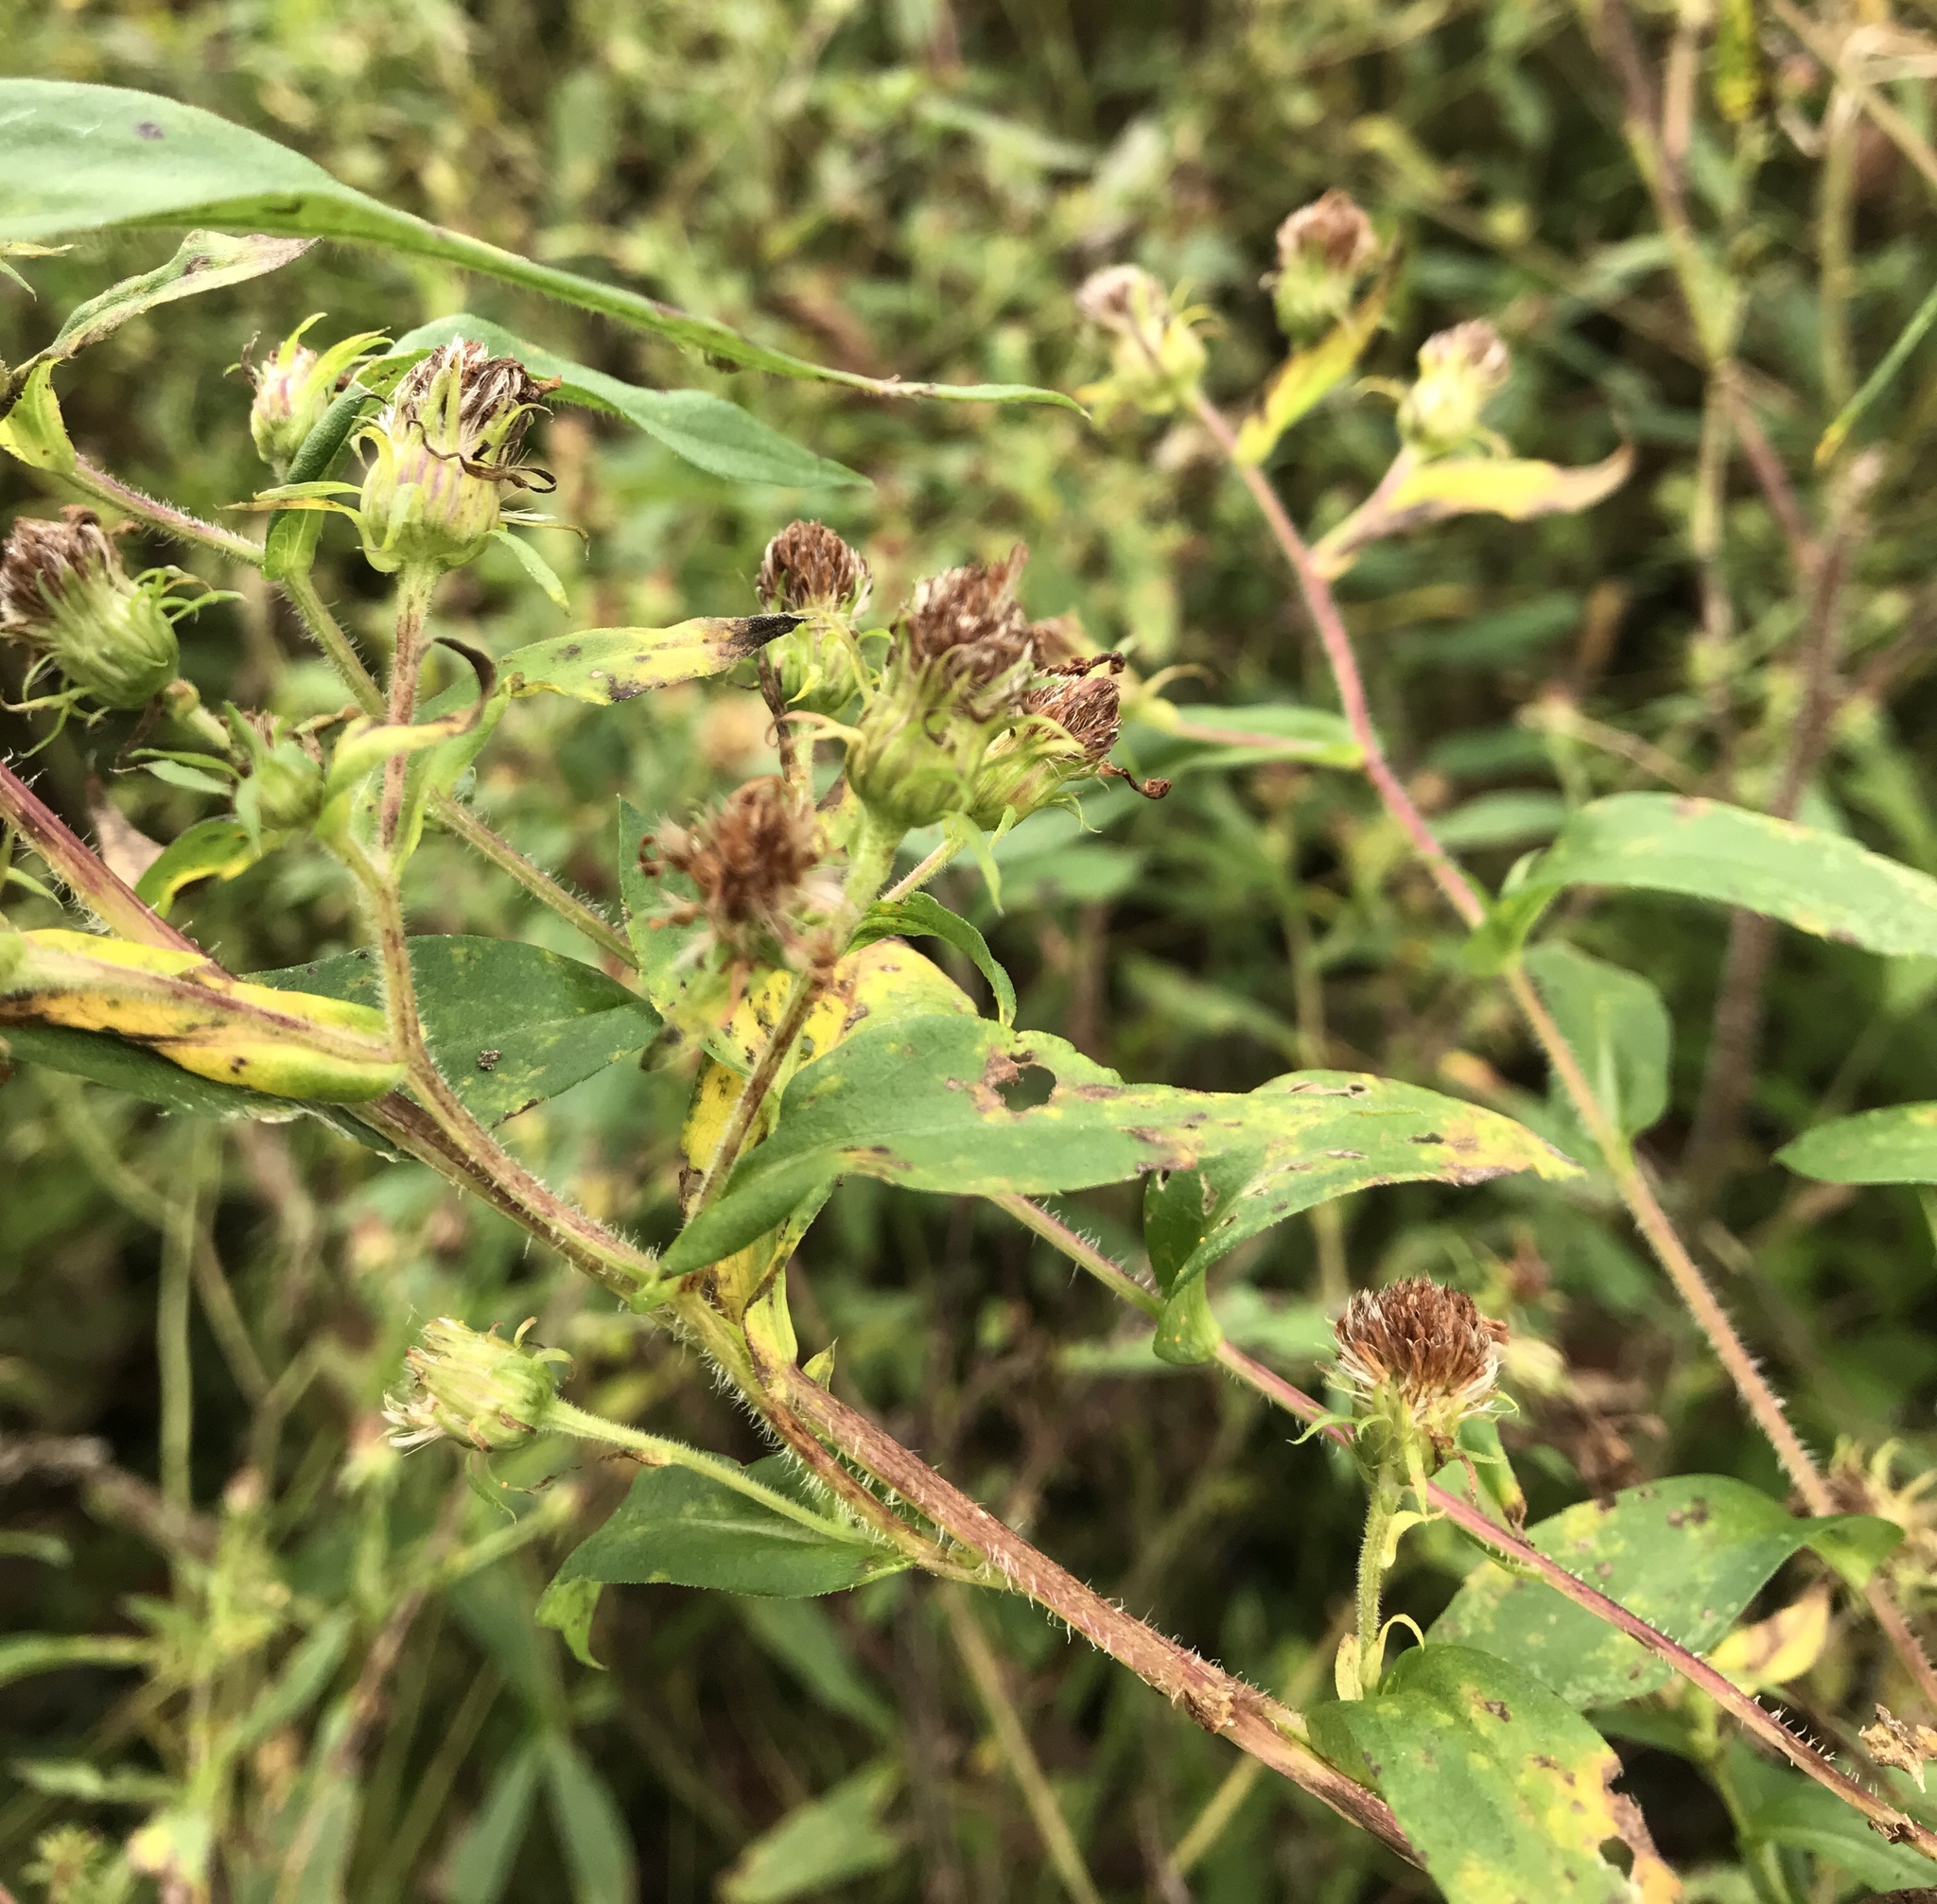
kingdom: Plantae
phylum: Tracheophyta
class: Magnoliopsida
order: Asterales
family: Asteraceae
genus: Symphyotrichum
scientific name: Symphyotrichum puniceum
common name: Bog aster
